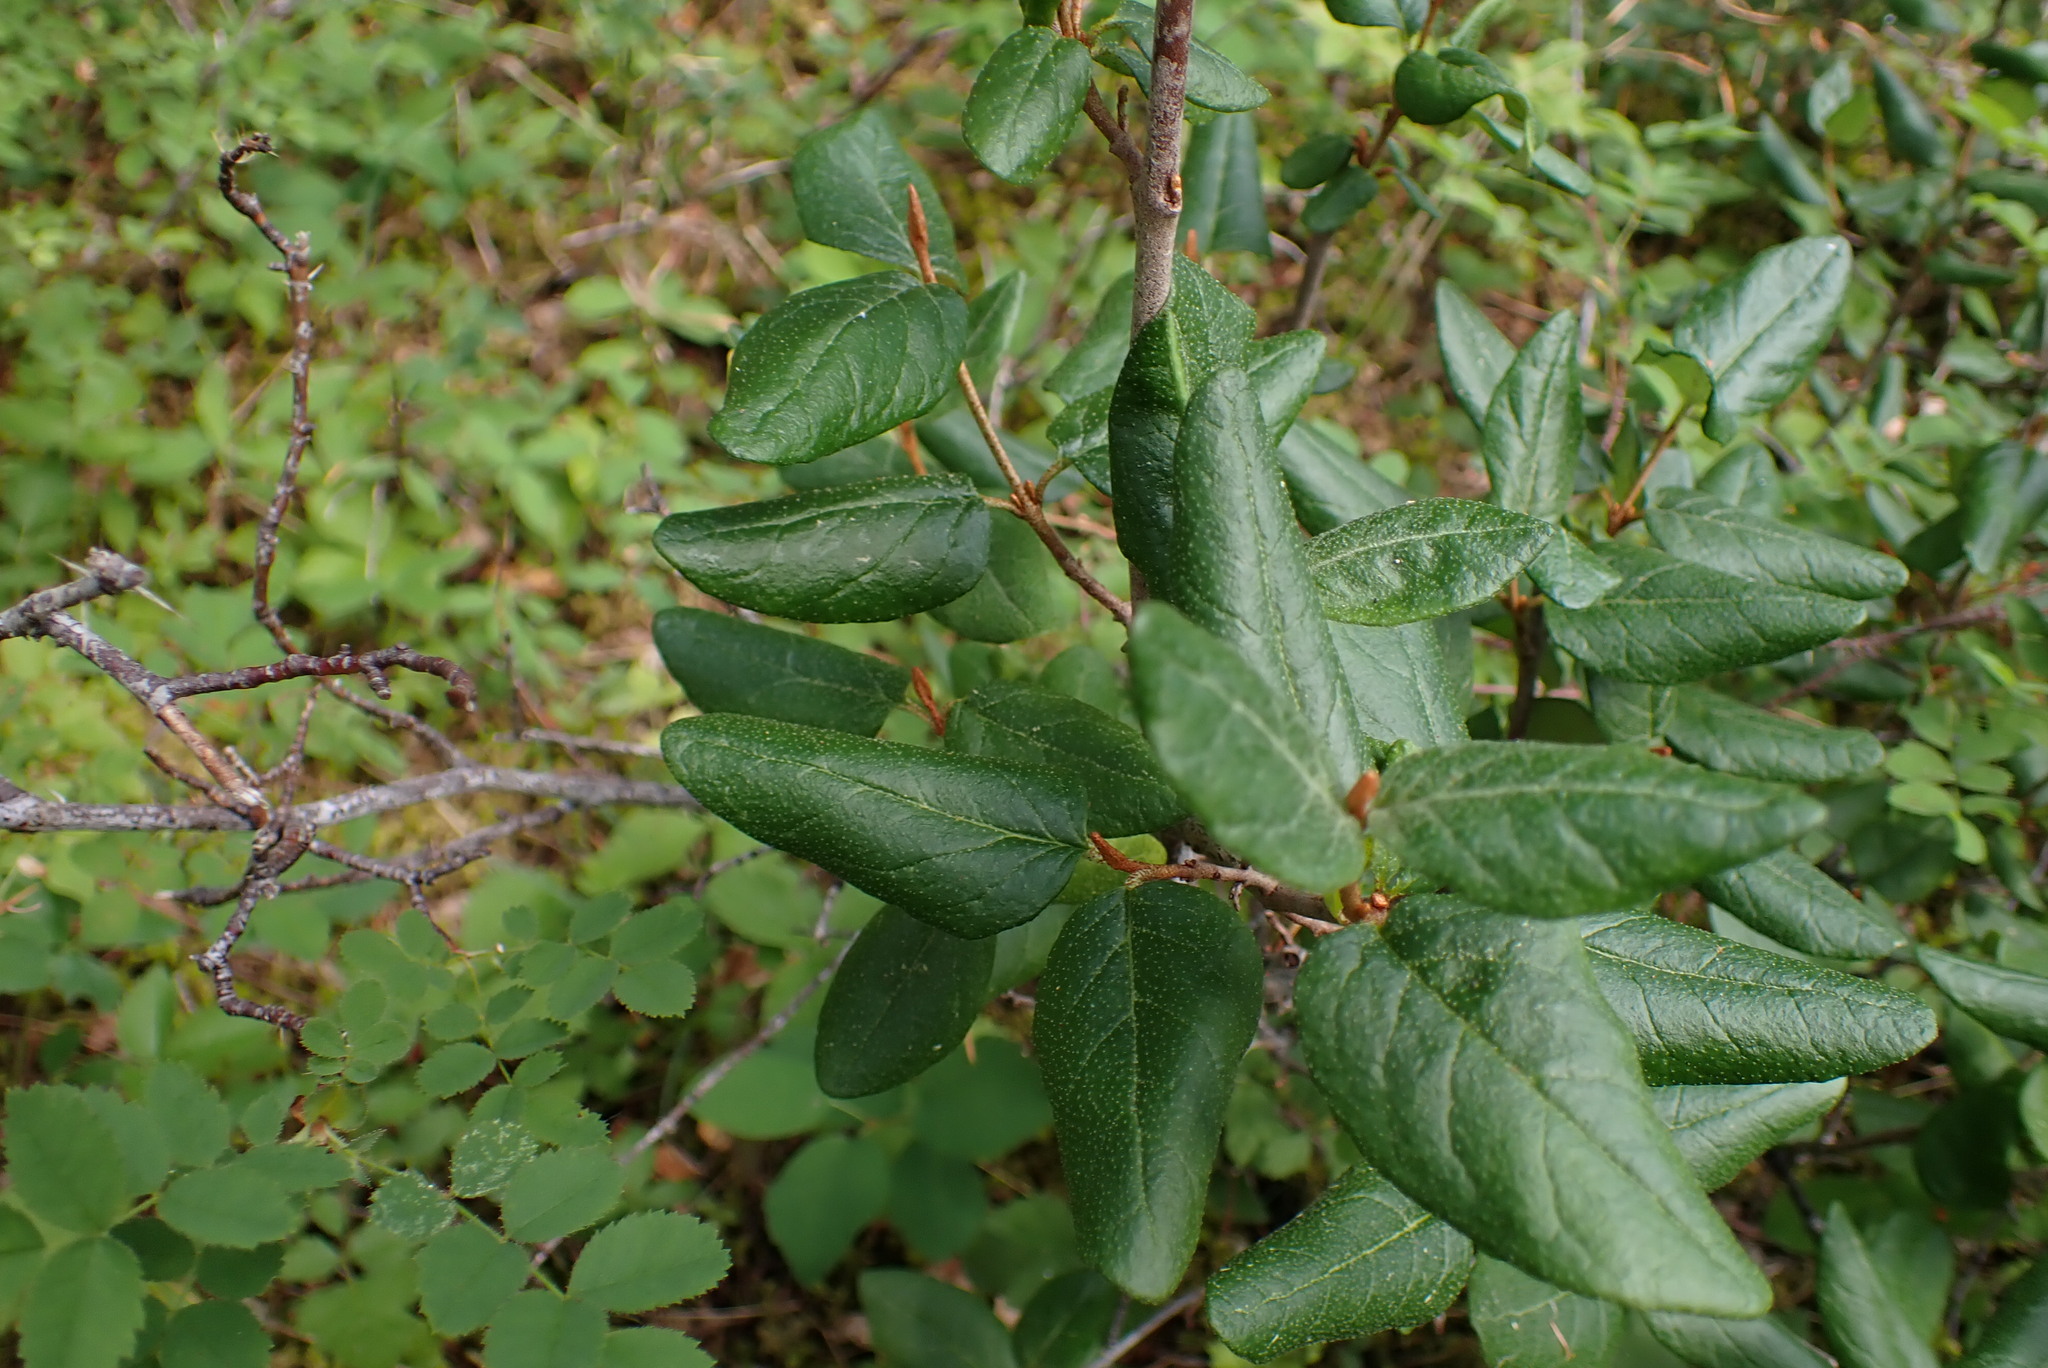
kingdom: Plantae
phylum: Tracheophyta
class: Magnoliopsida
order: Rosales
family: Elaeagnaceae
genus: Shepherdia
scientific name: Shepherdia canadensis
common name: Soapberry
